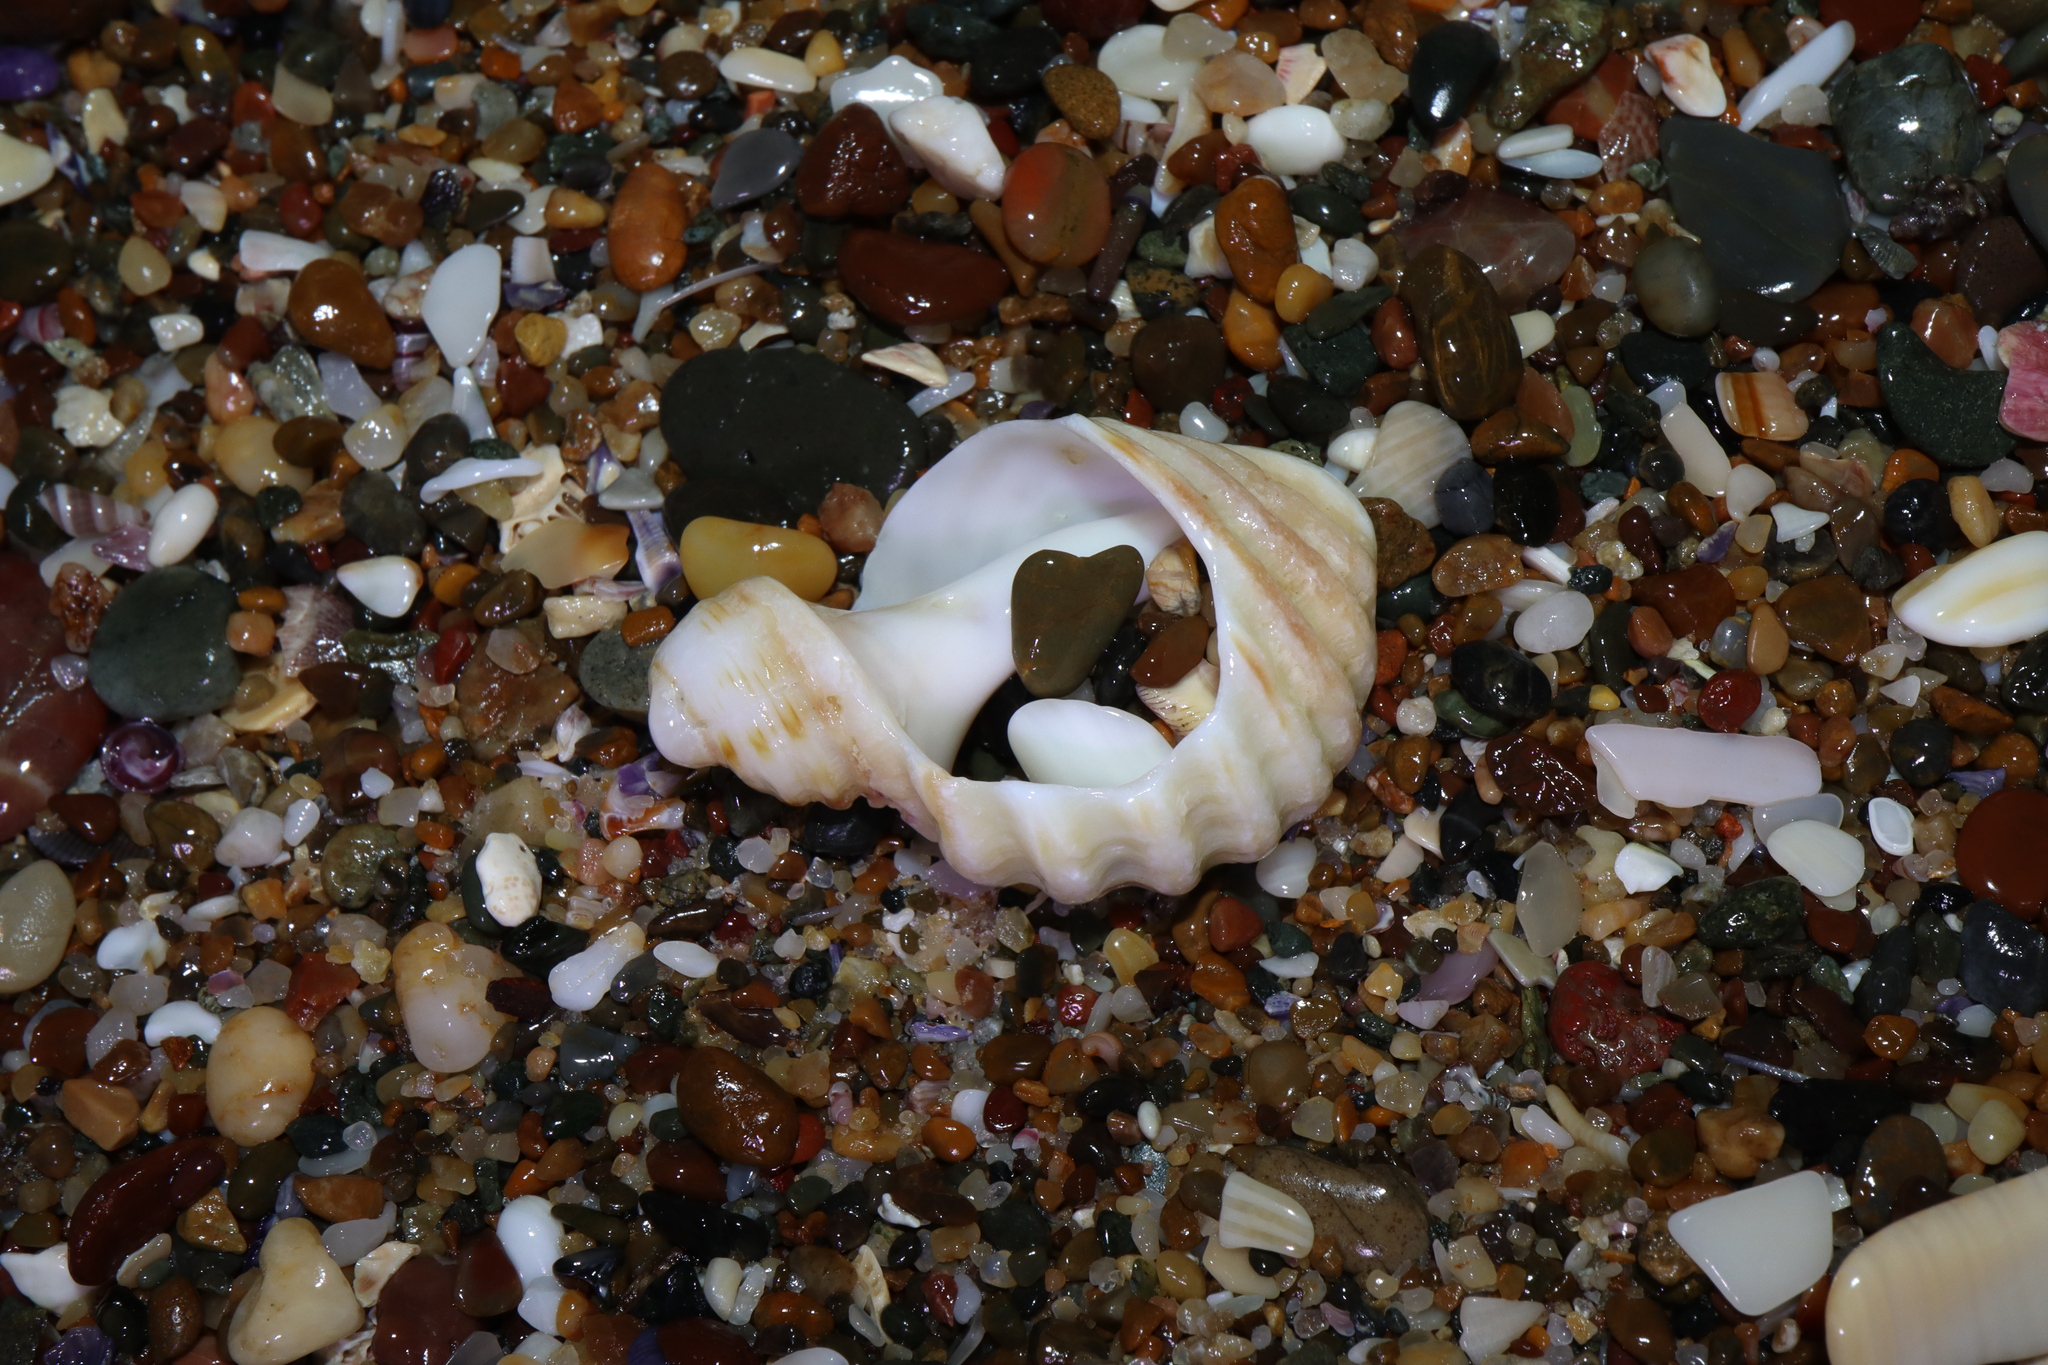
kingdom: Animalia
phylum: Mollusca
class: Gastropoda
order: Neogastropoda
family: Muricidae
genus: Dicathais
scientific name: Dicathais orbita
